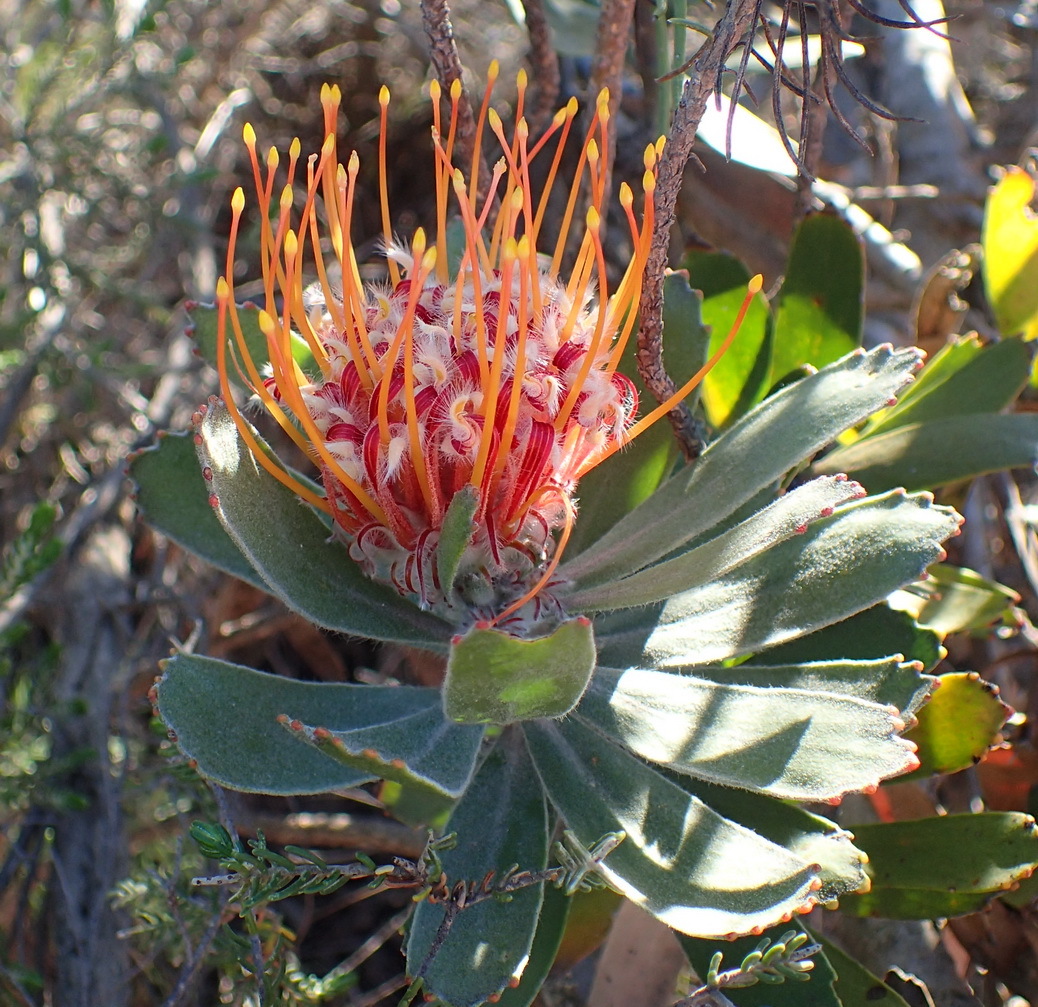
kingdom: Plantae
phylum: Tracheophyta
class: Magnoliopsida
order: Proteales
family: Proteaceae
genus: Leucospermum
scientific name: Leucospermum pluridens
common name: Robinson pincushion
